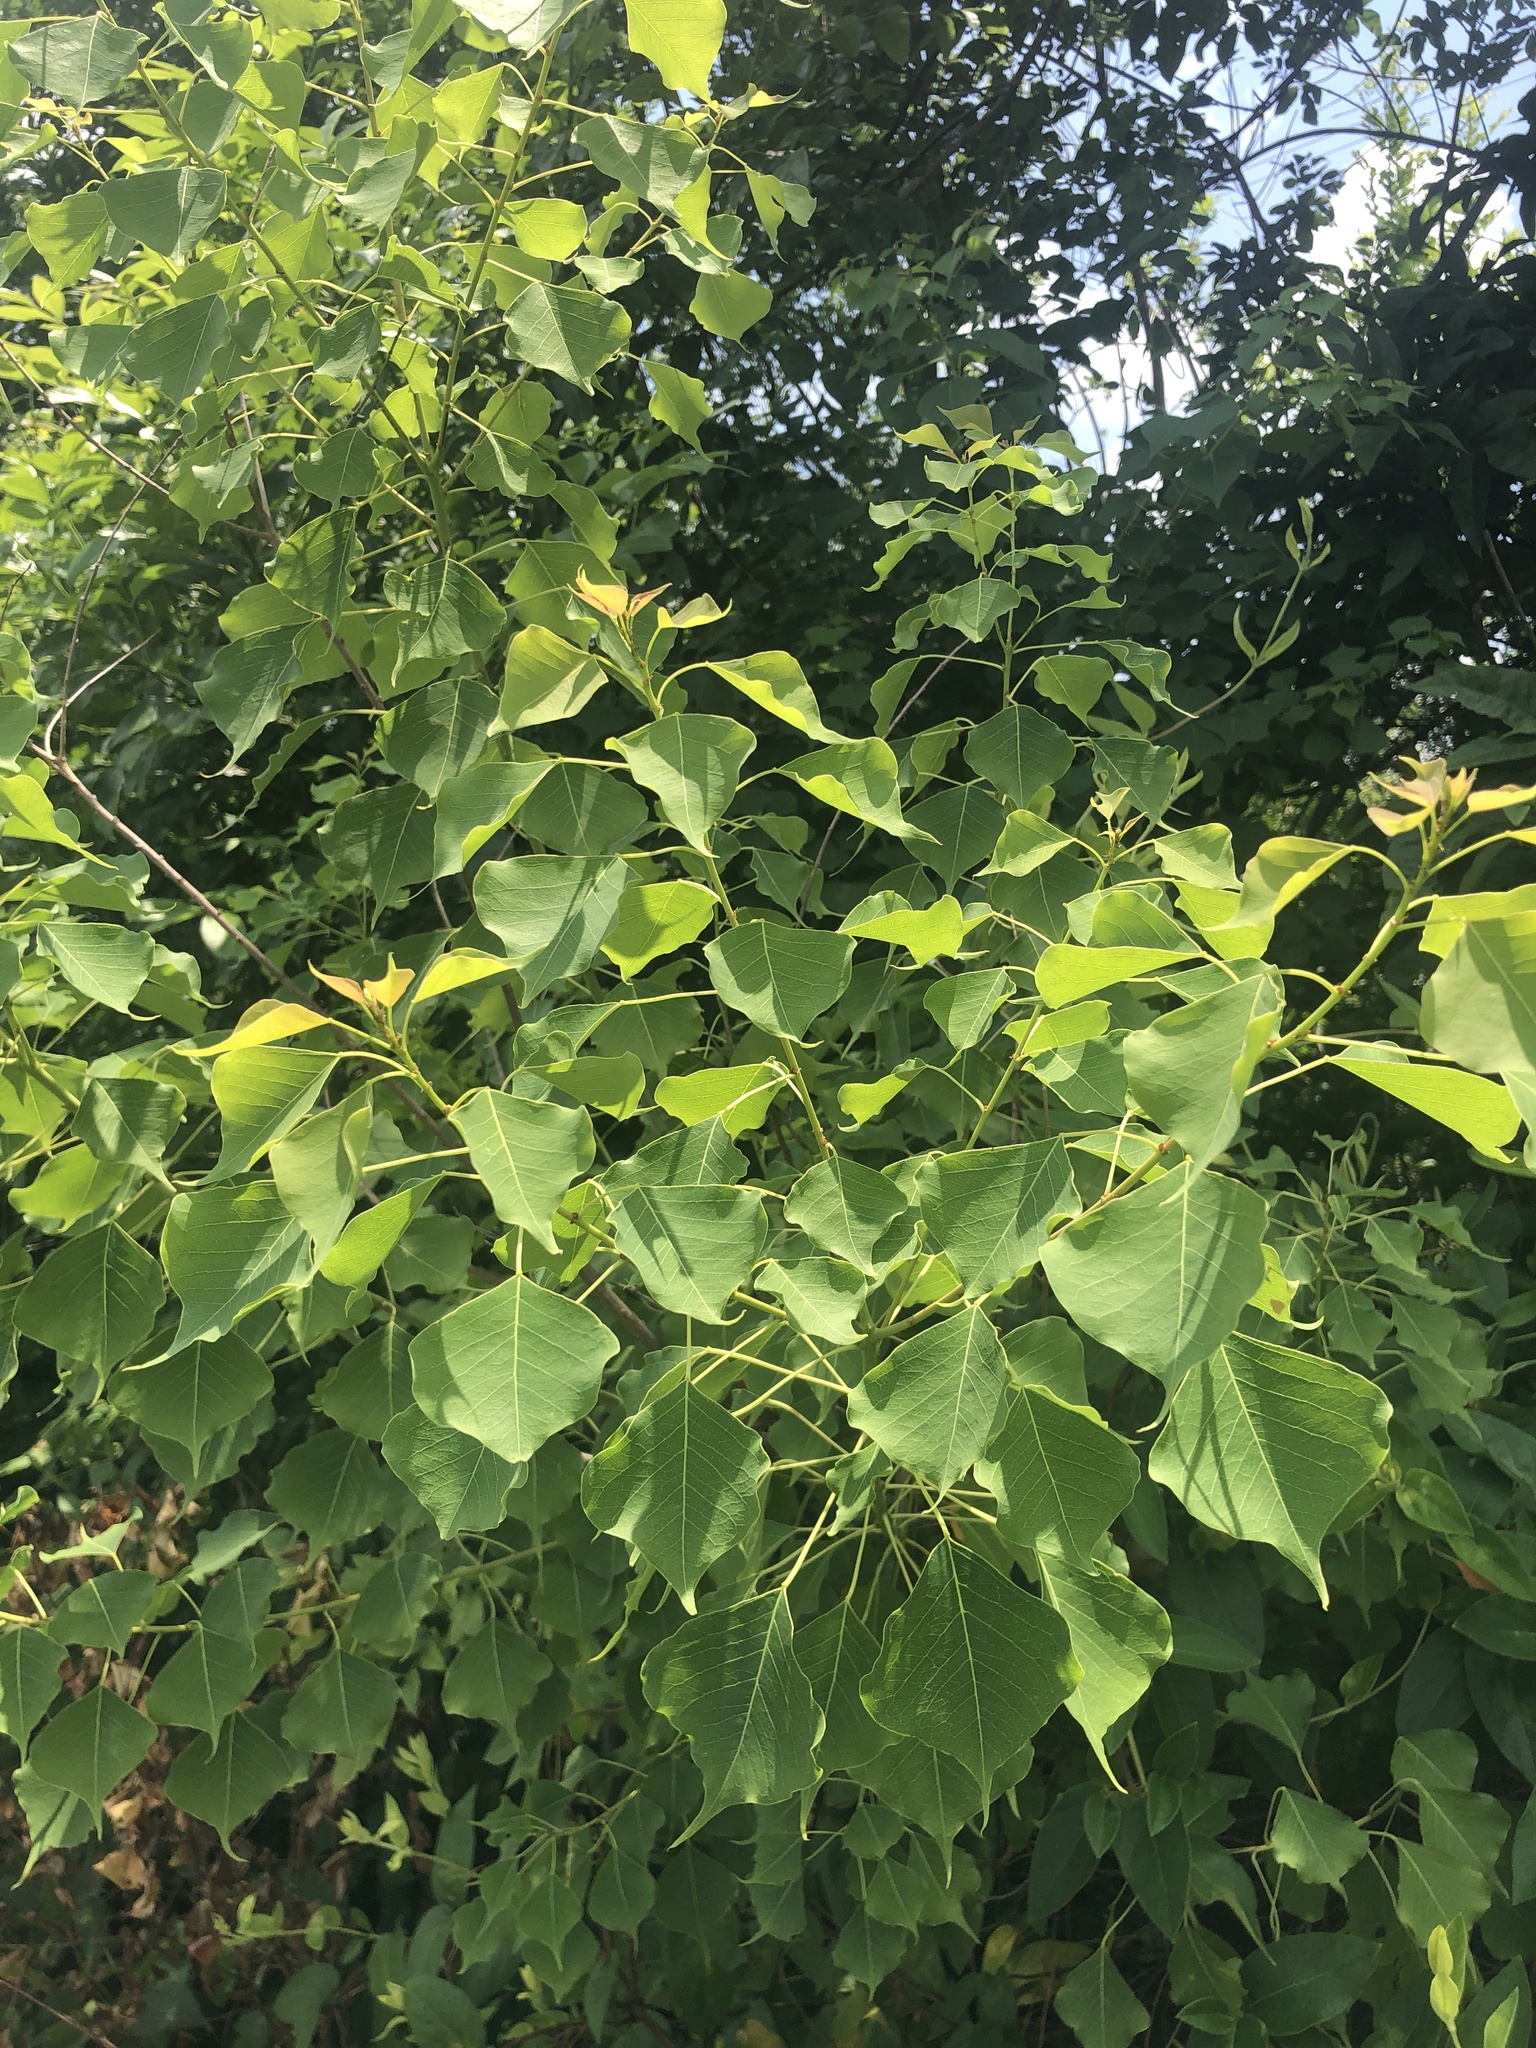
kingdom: Plantae
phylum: Tracheophyta
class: Magnoliopsida
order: Malpighiales
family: Euphorbiaceae
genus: Triadica
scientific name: Triadica sebifera
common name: Chinese tallow
